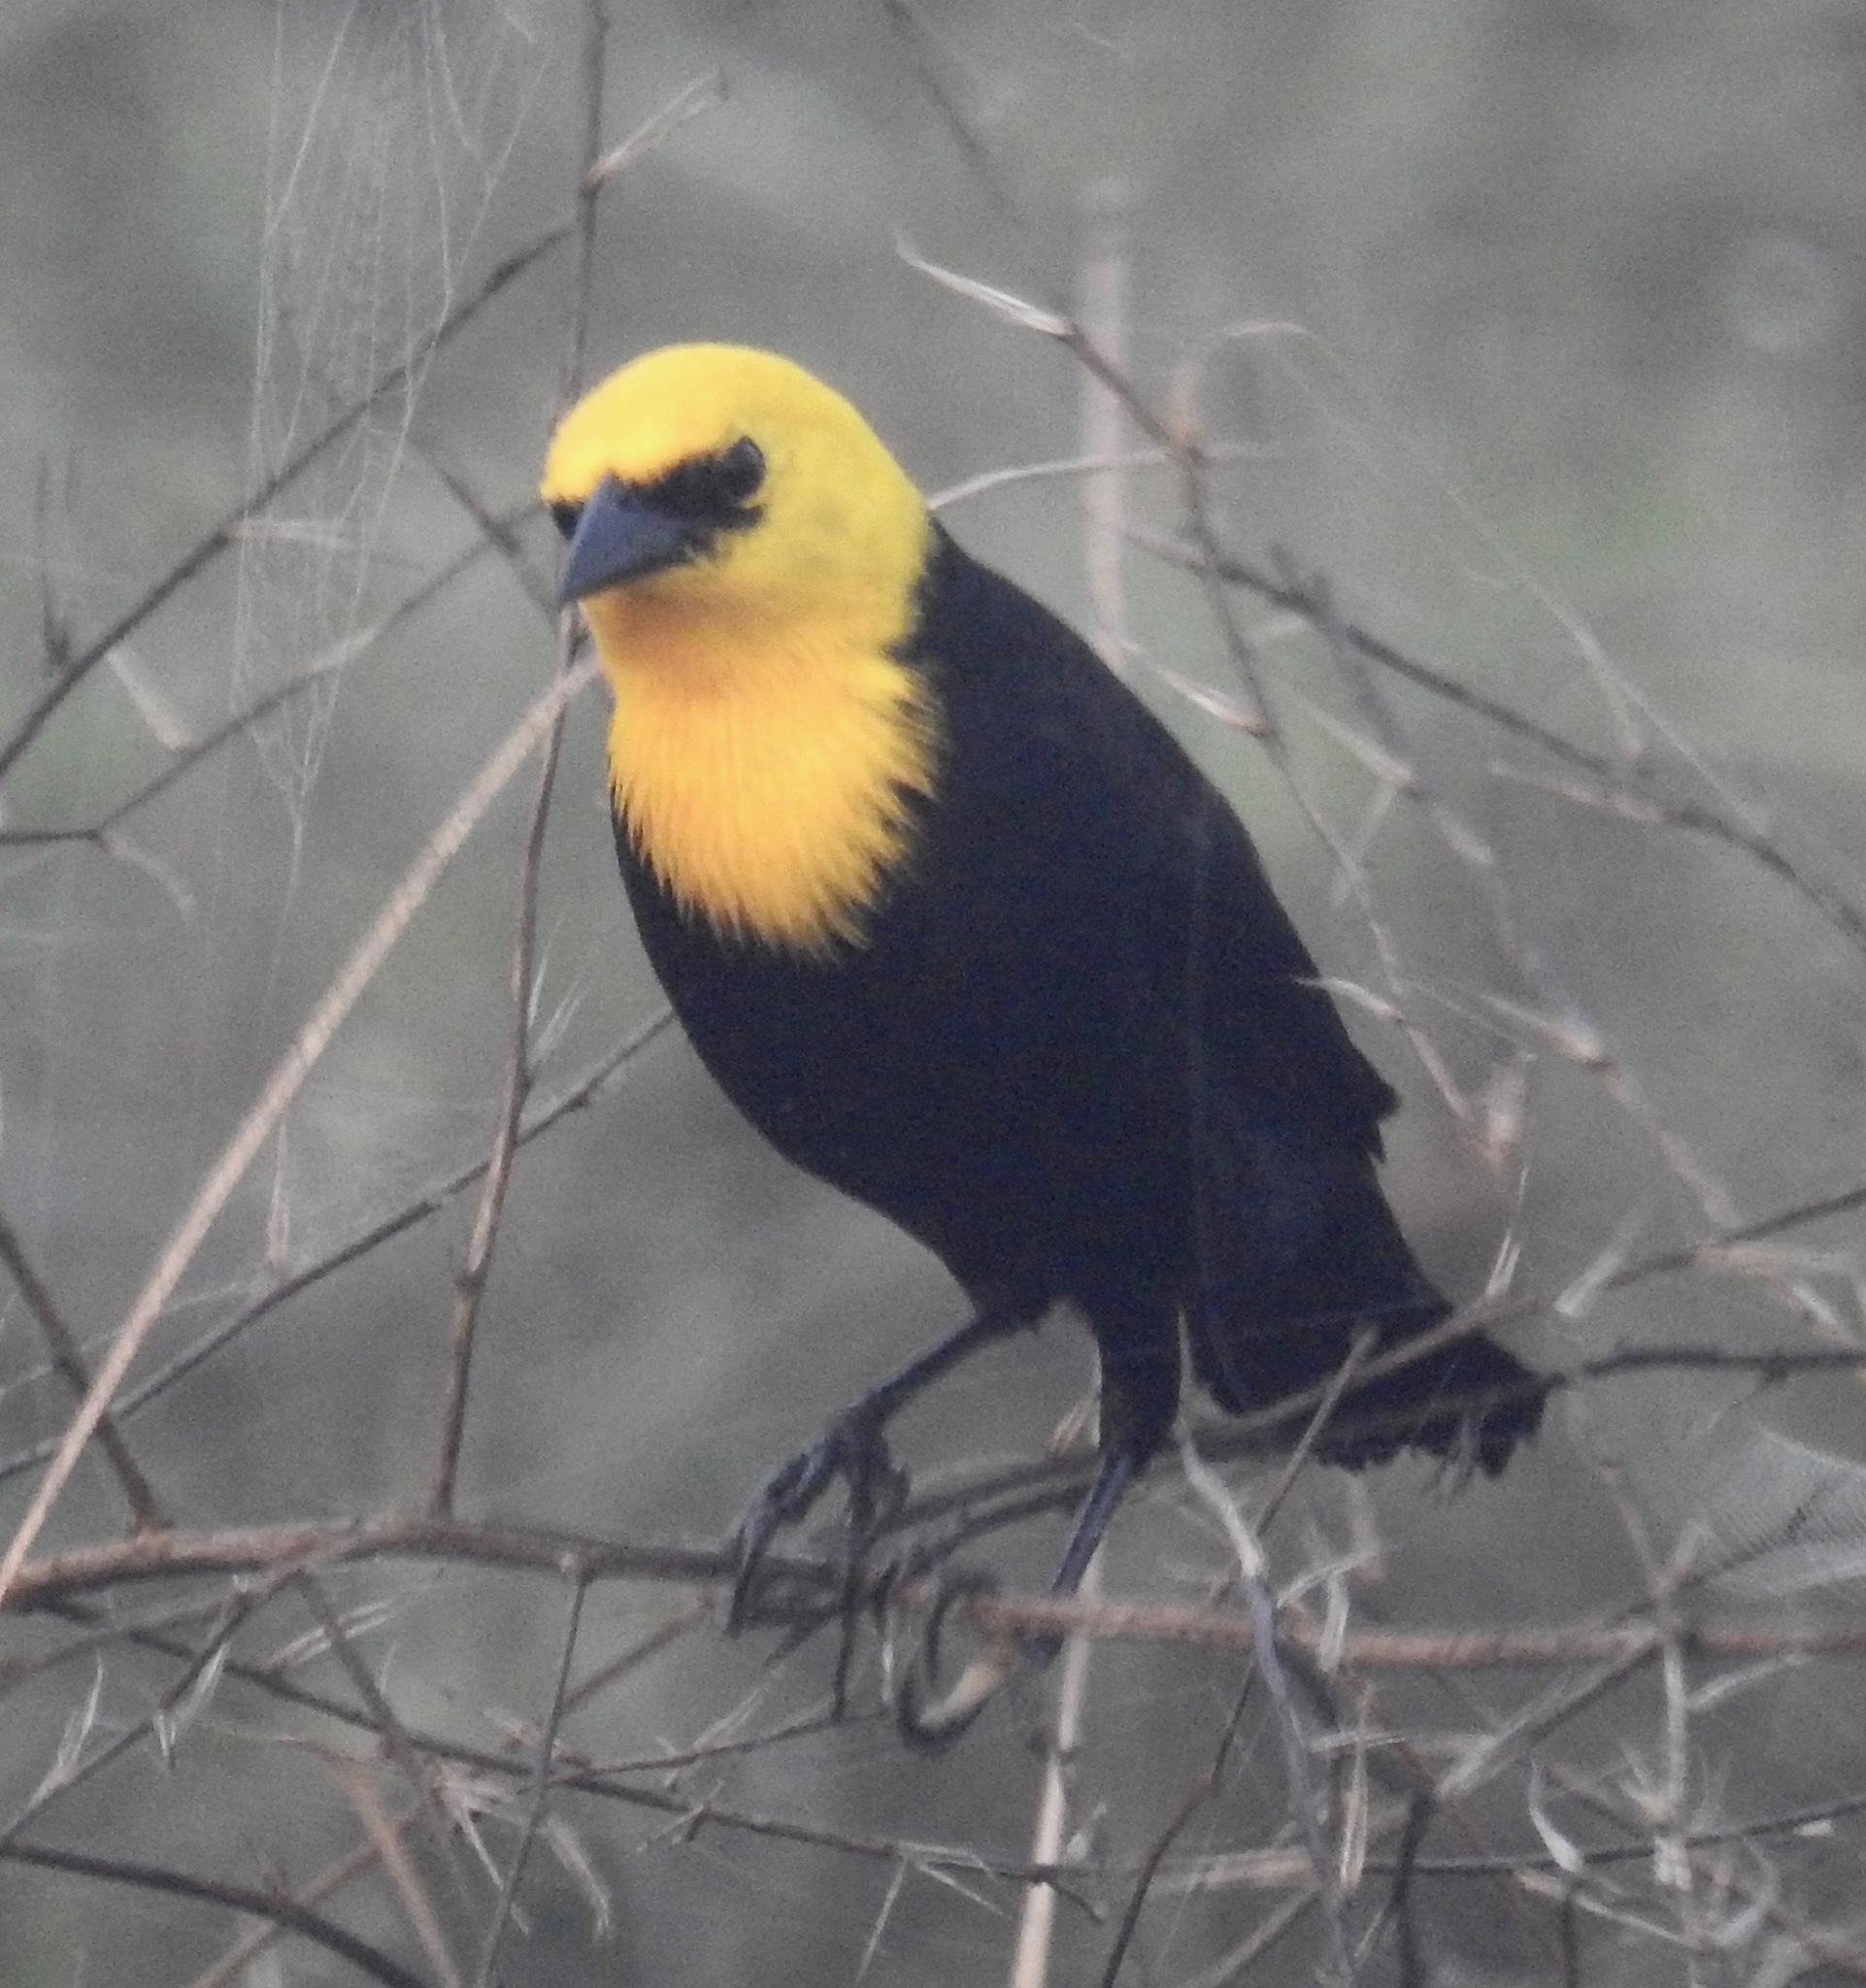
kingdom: Animalia
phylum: Chordata
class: Aves
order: Passeriformes
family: Icteridae
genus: Chrysomus
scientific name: Chrysomus icterocephalus
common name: Yellow-hooded blackbird
